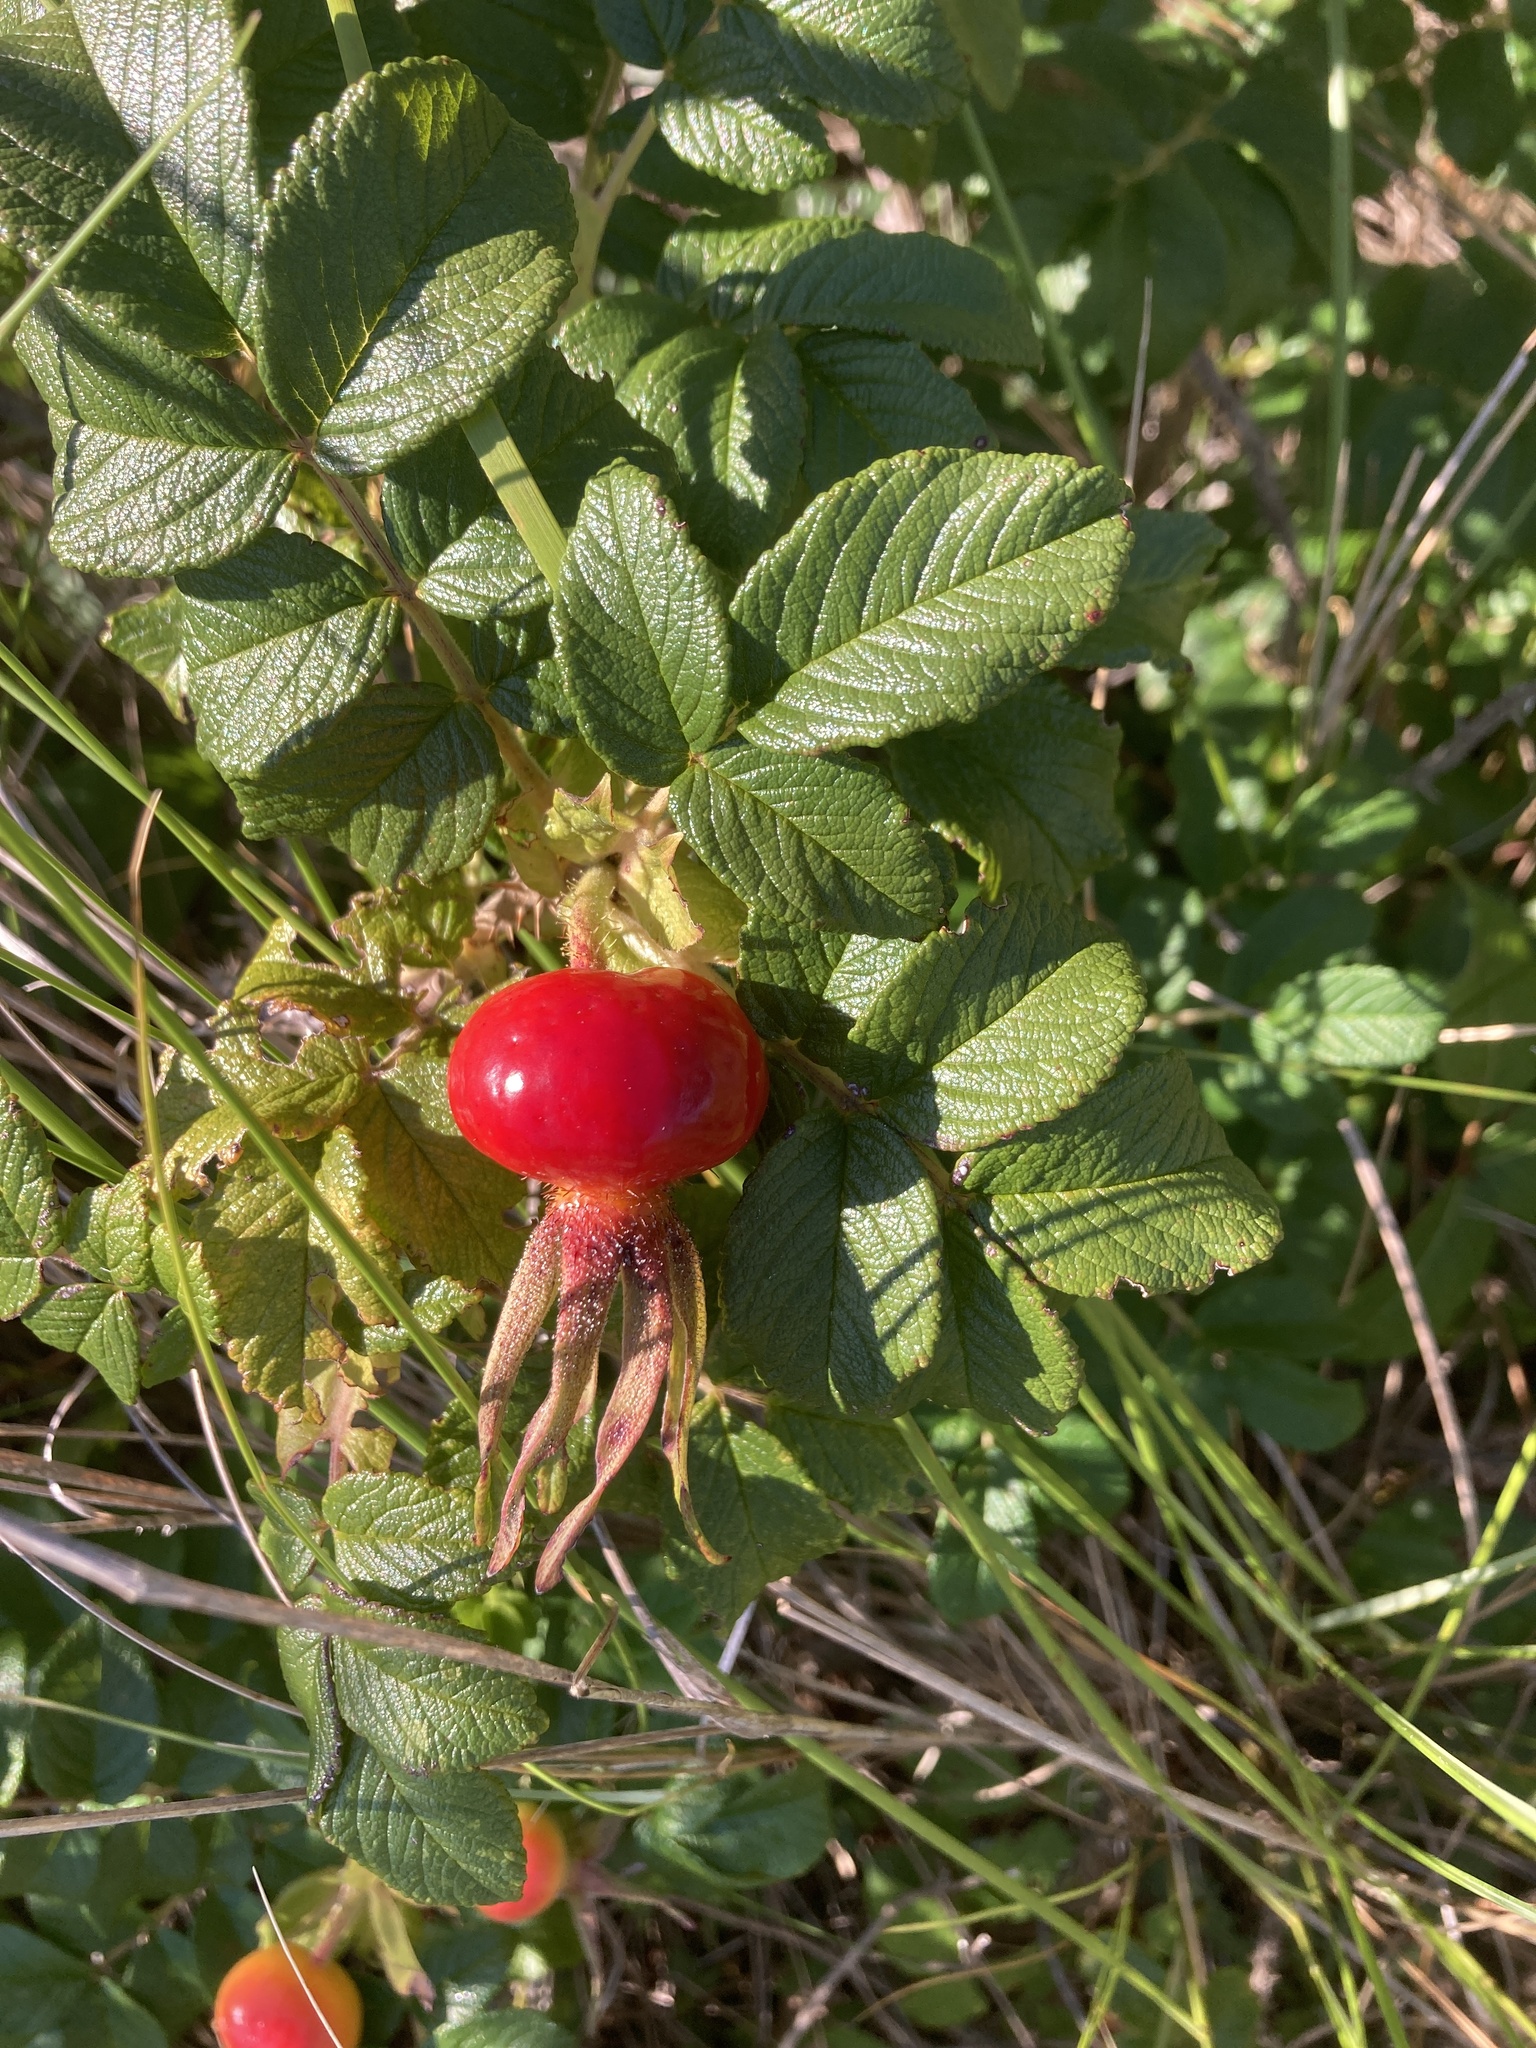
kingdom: Plantae
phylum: Tracheophyta
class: Magnoliopsida
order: Rosales
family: Rosaceae
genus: Rosa
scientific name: Rosa rugosa
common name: Japanese rose
